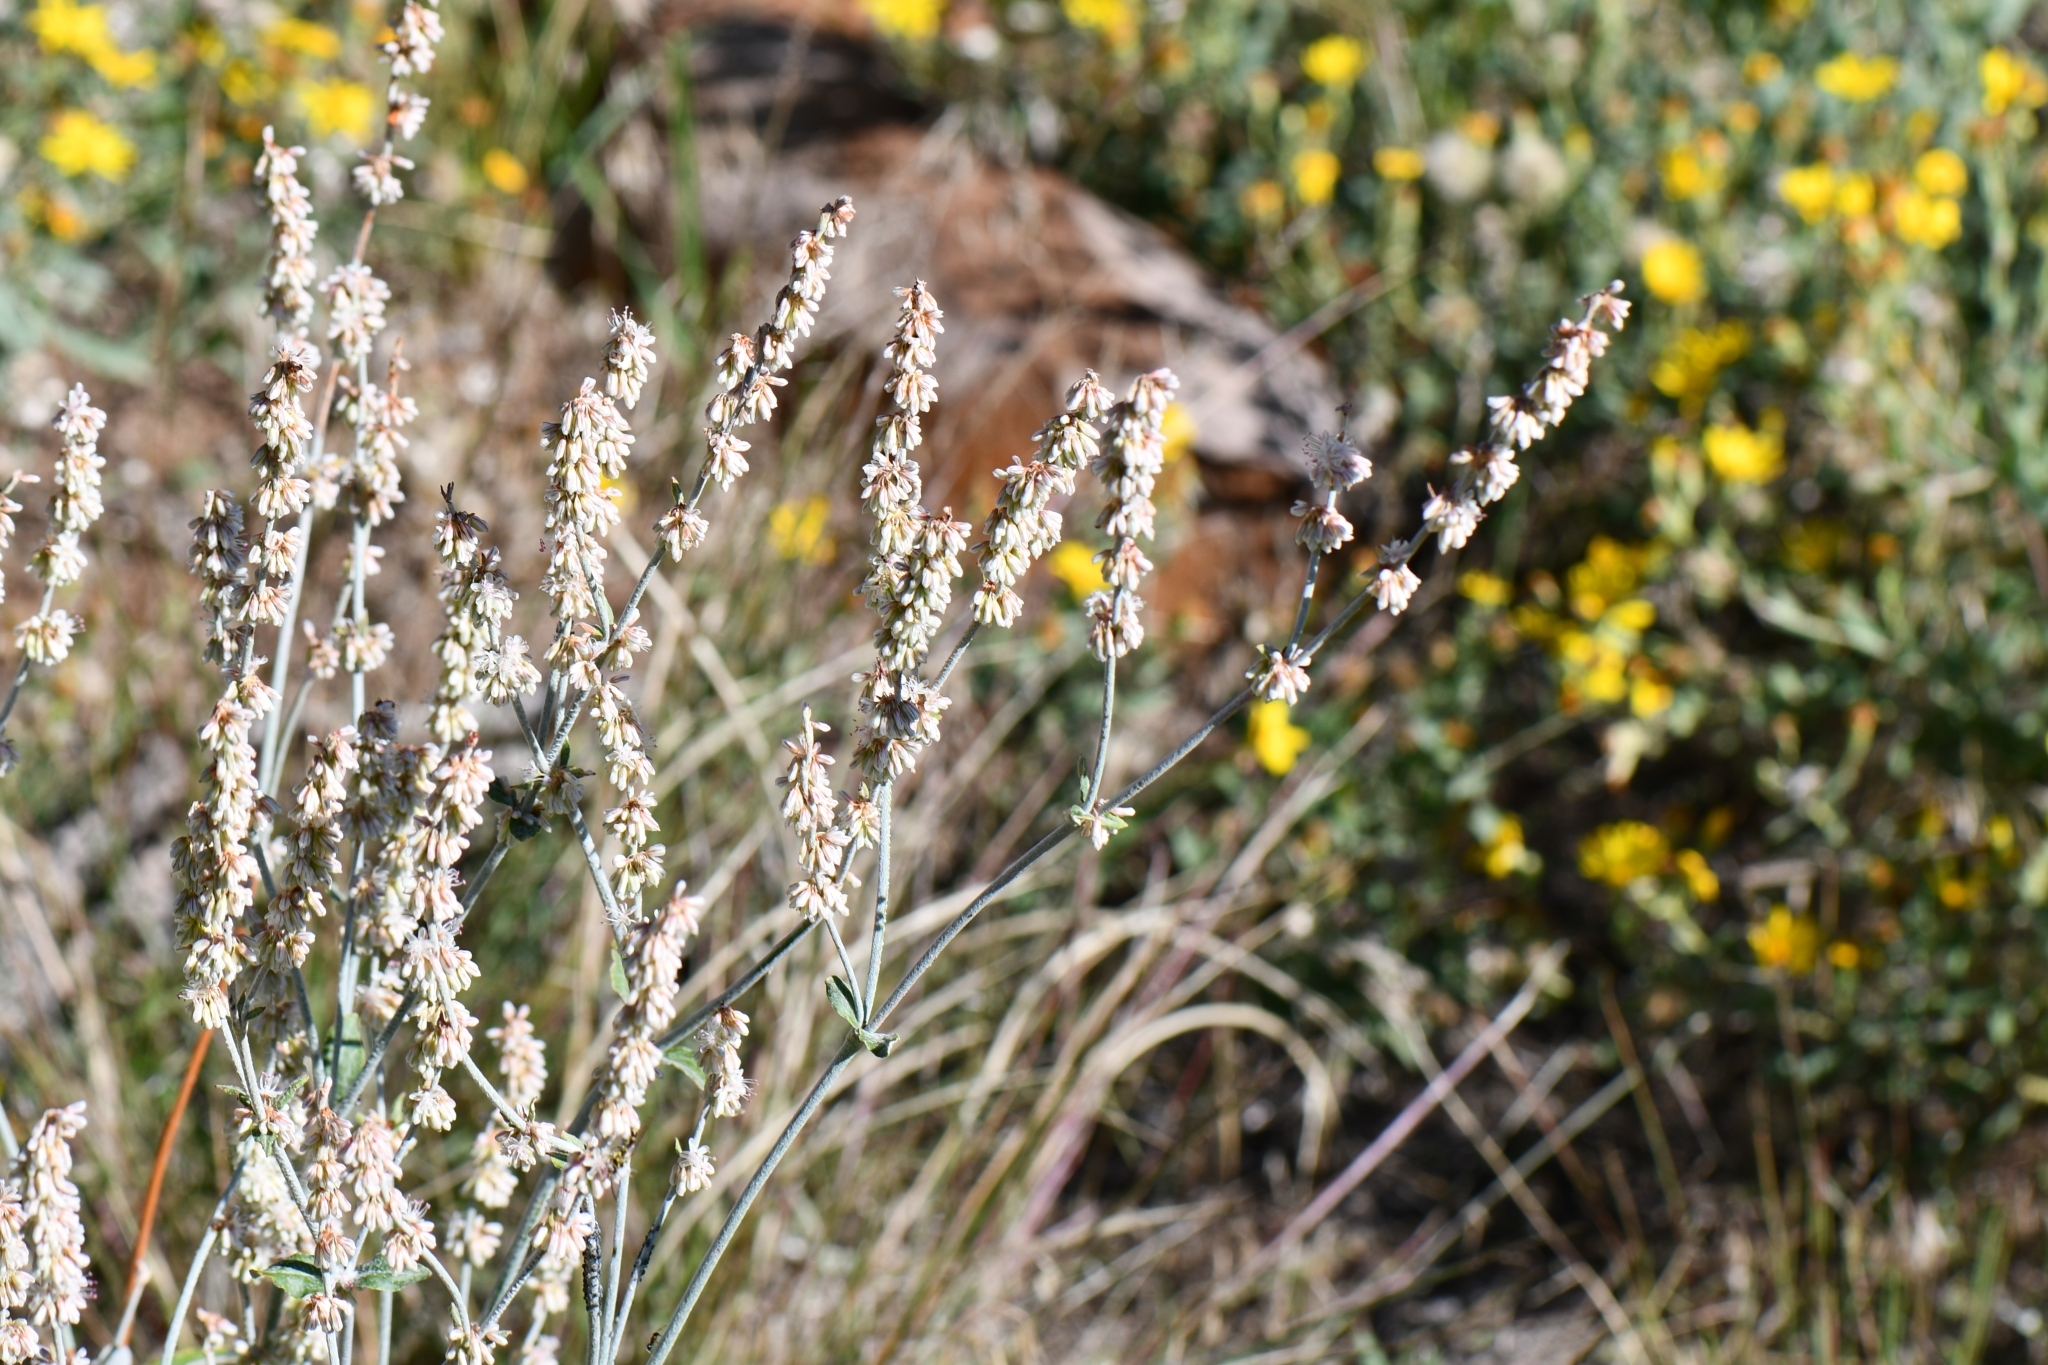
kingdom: Plantae
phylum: Tracheophyta
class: Magnoliopsida
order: Caryophyllales
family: Polygonaceae
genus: Eriogonum
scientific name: Eriogonum racemosum
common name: Redroot wild buckwheat
